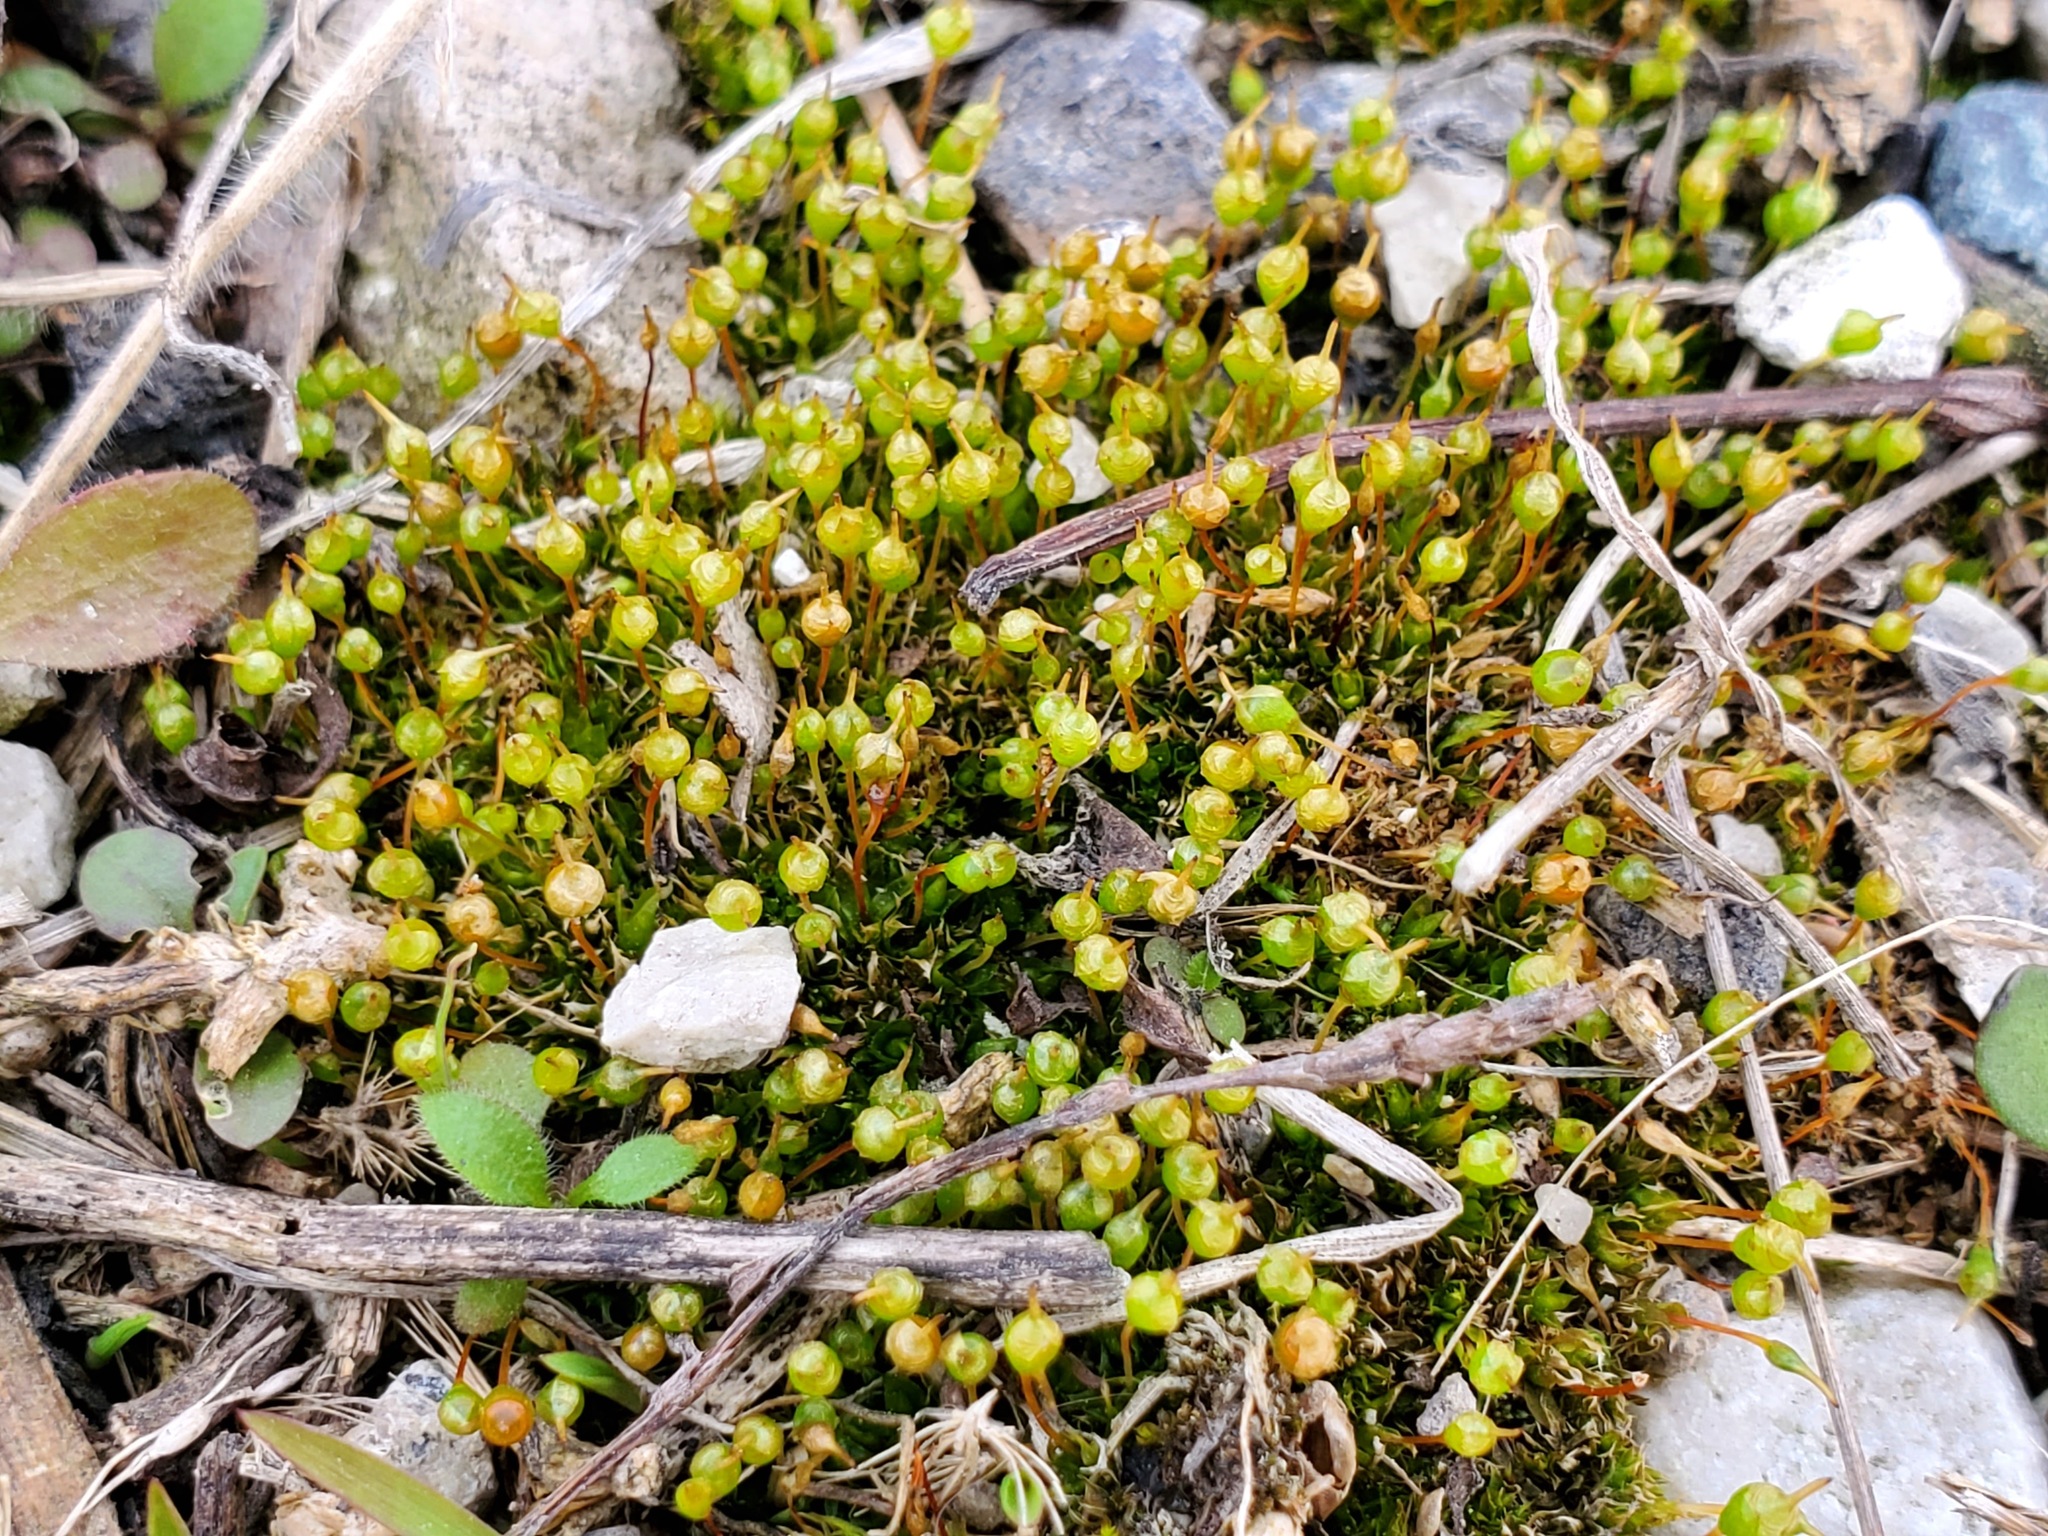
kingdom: Plantae
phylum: Bryophyta
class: Bryopsida
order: Funariales
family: Funariaceae
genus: Physcomitrium
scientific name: Physcomitrium pyriforme
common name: Common bladder-moss
